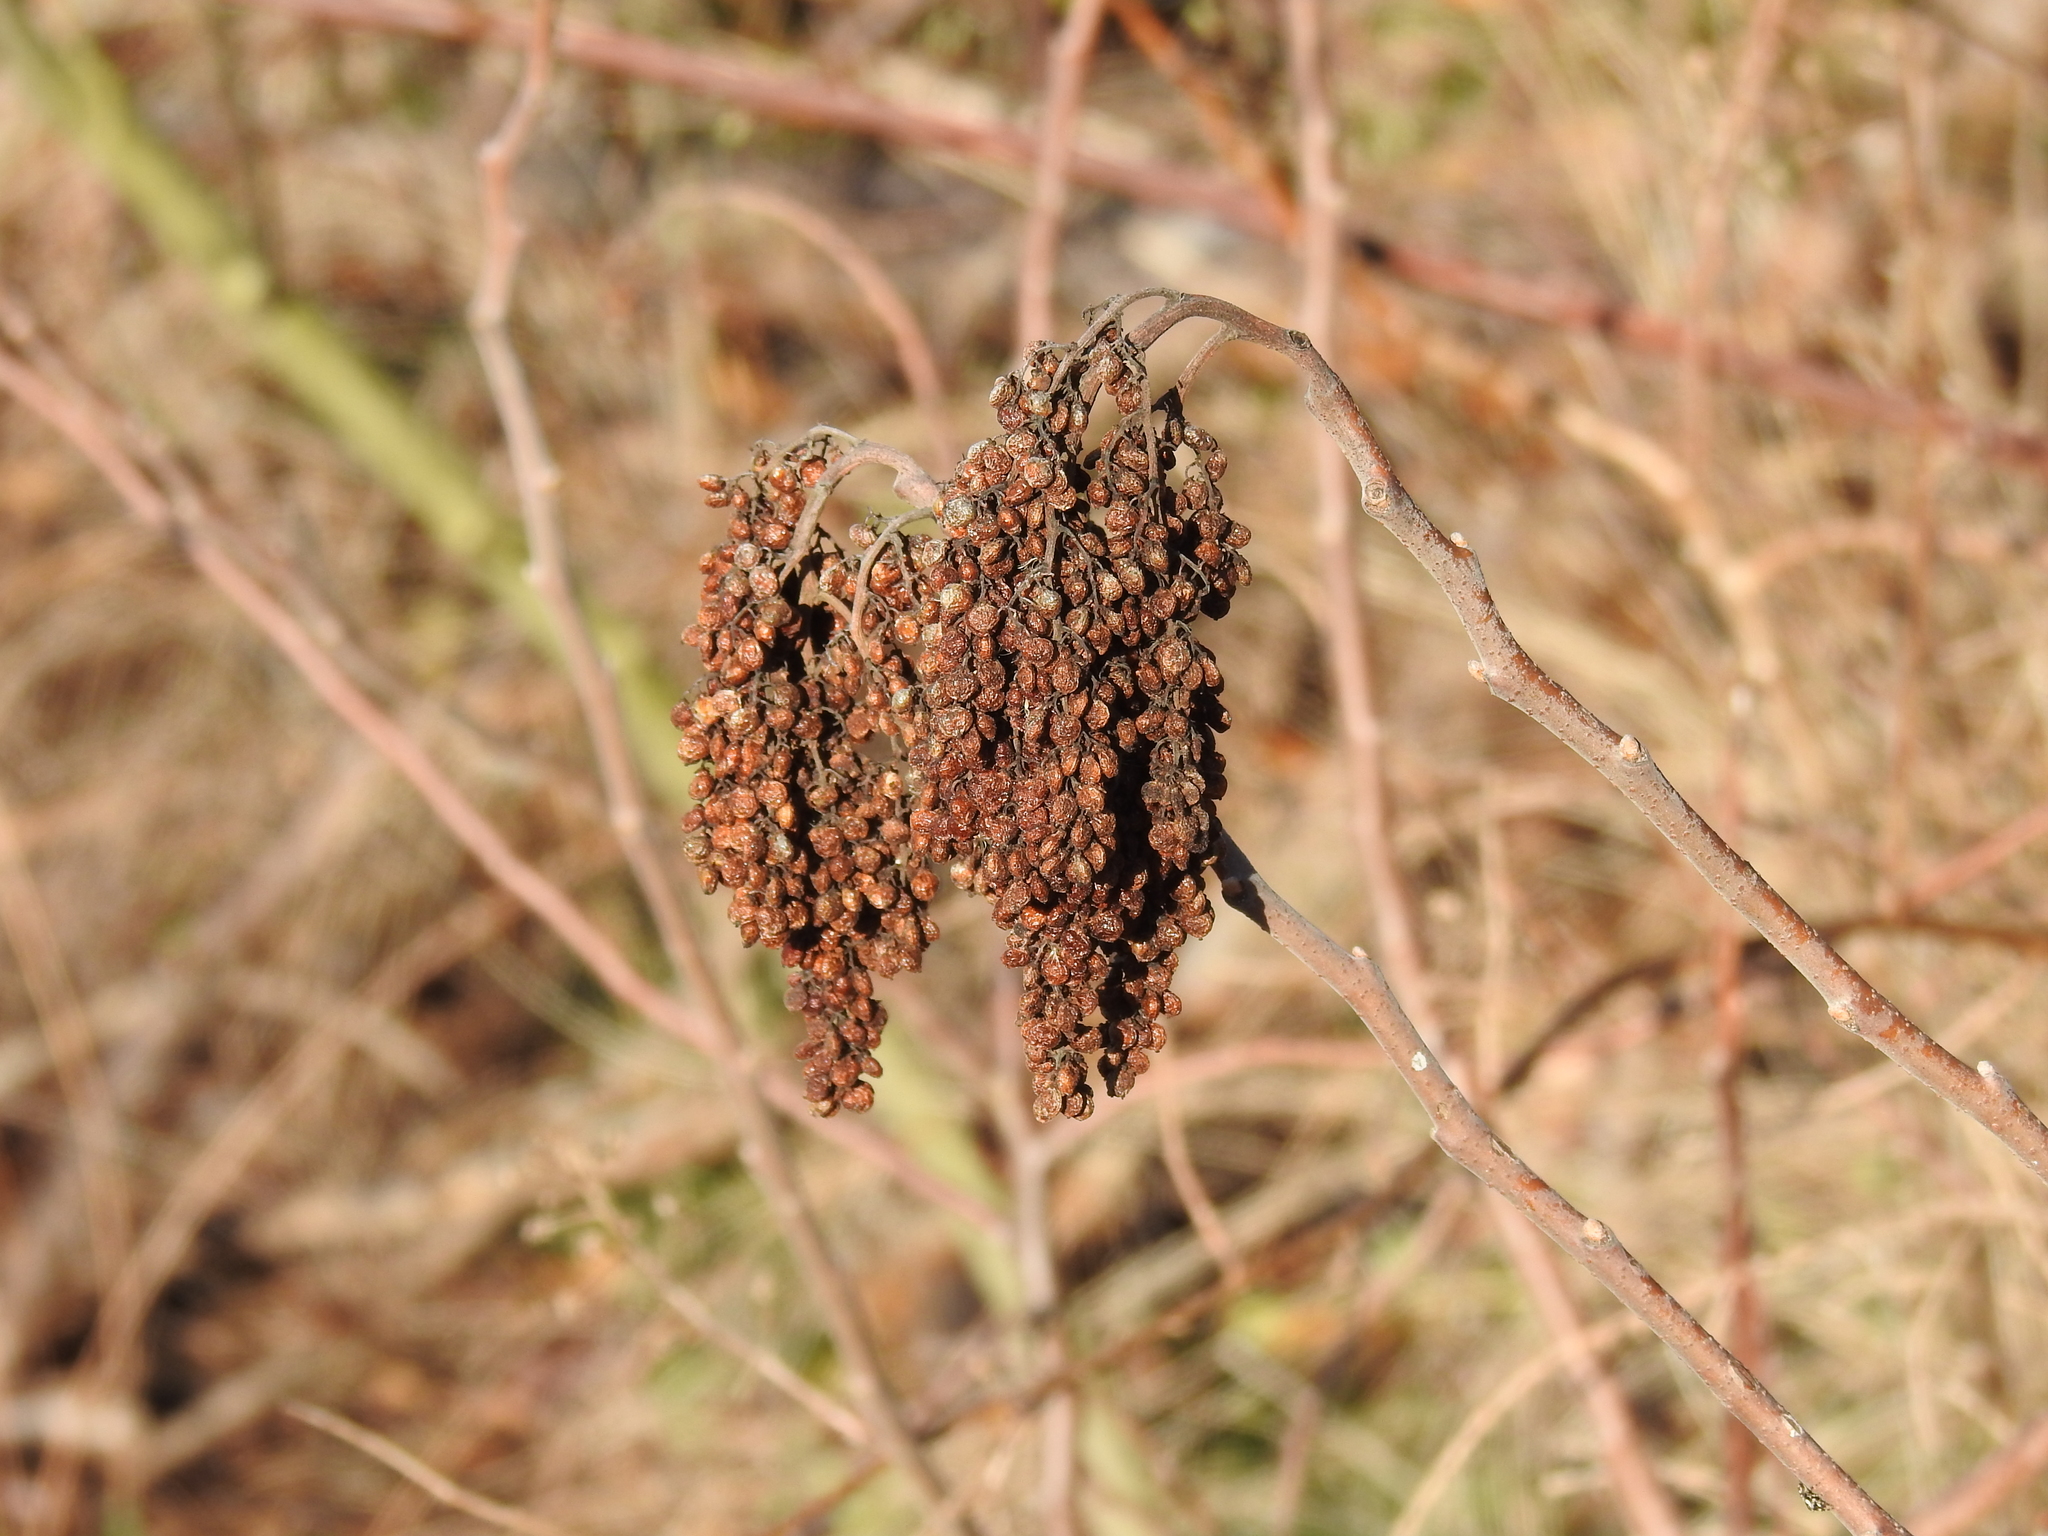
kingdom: Plantae
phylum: Tracheophyta
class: Magnoliopsida
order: Sapindales
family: Anacardiaceae
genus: Rhus
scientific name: Rhus copallina
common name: Shining sumac
